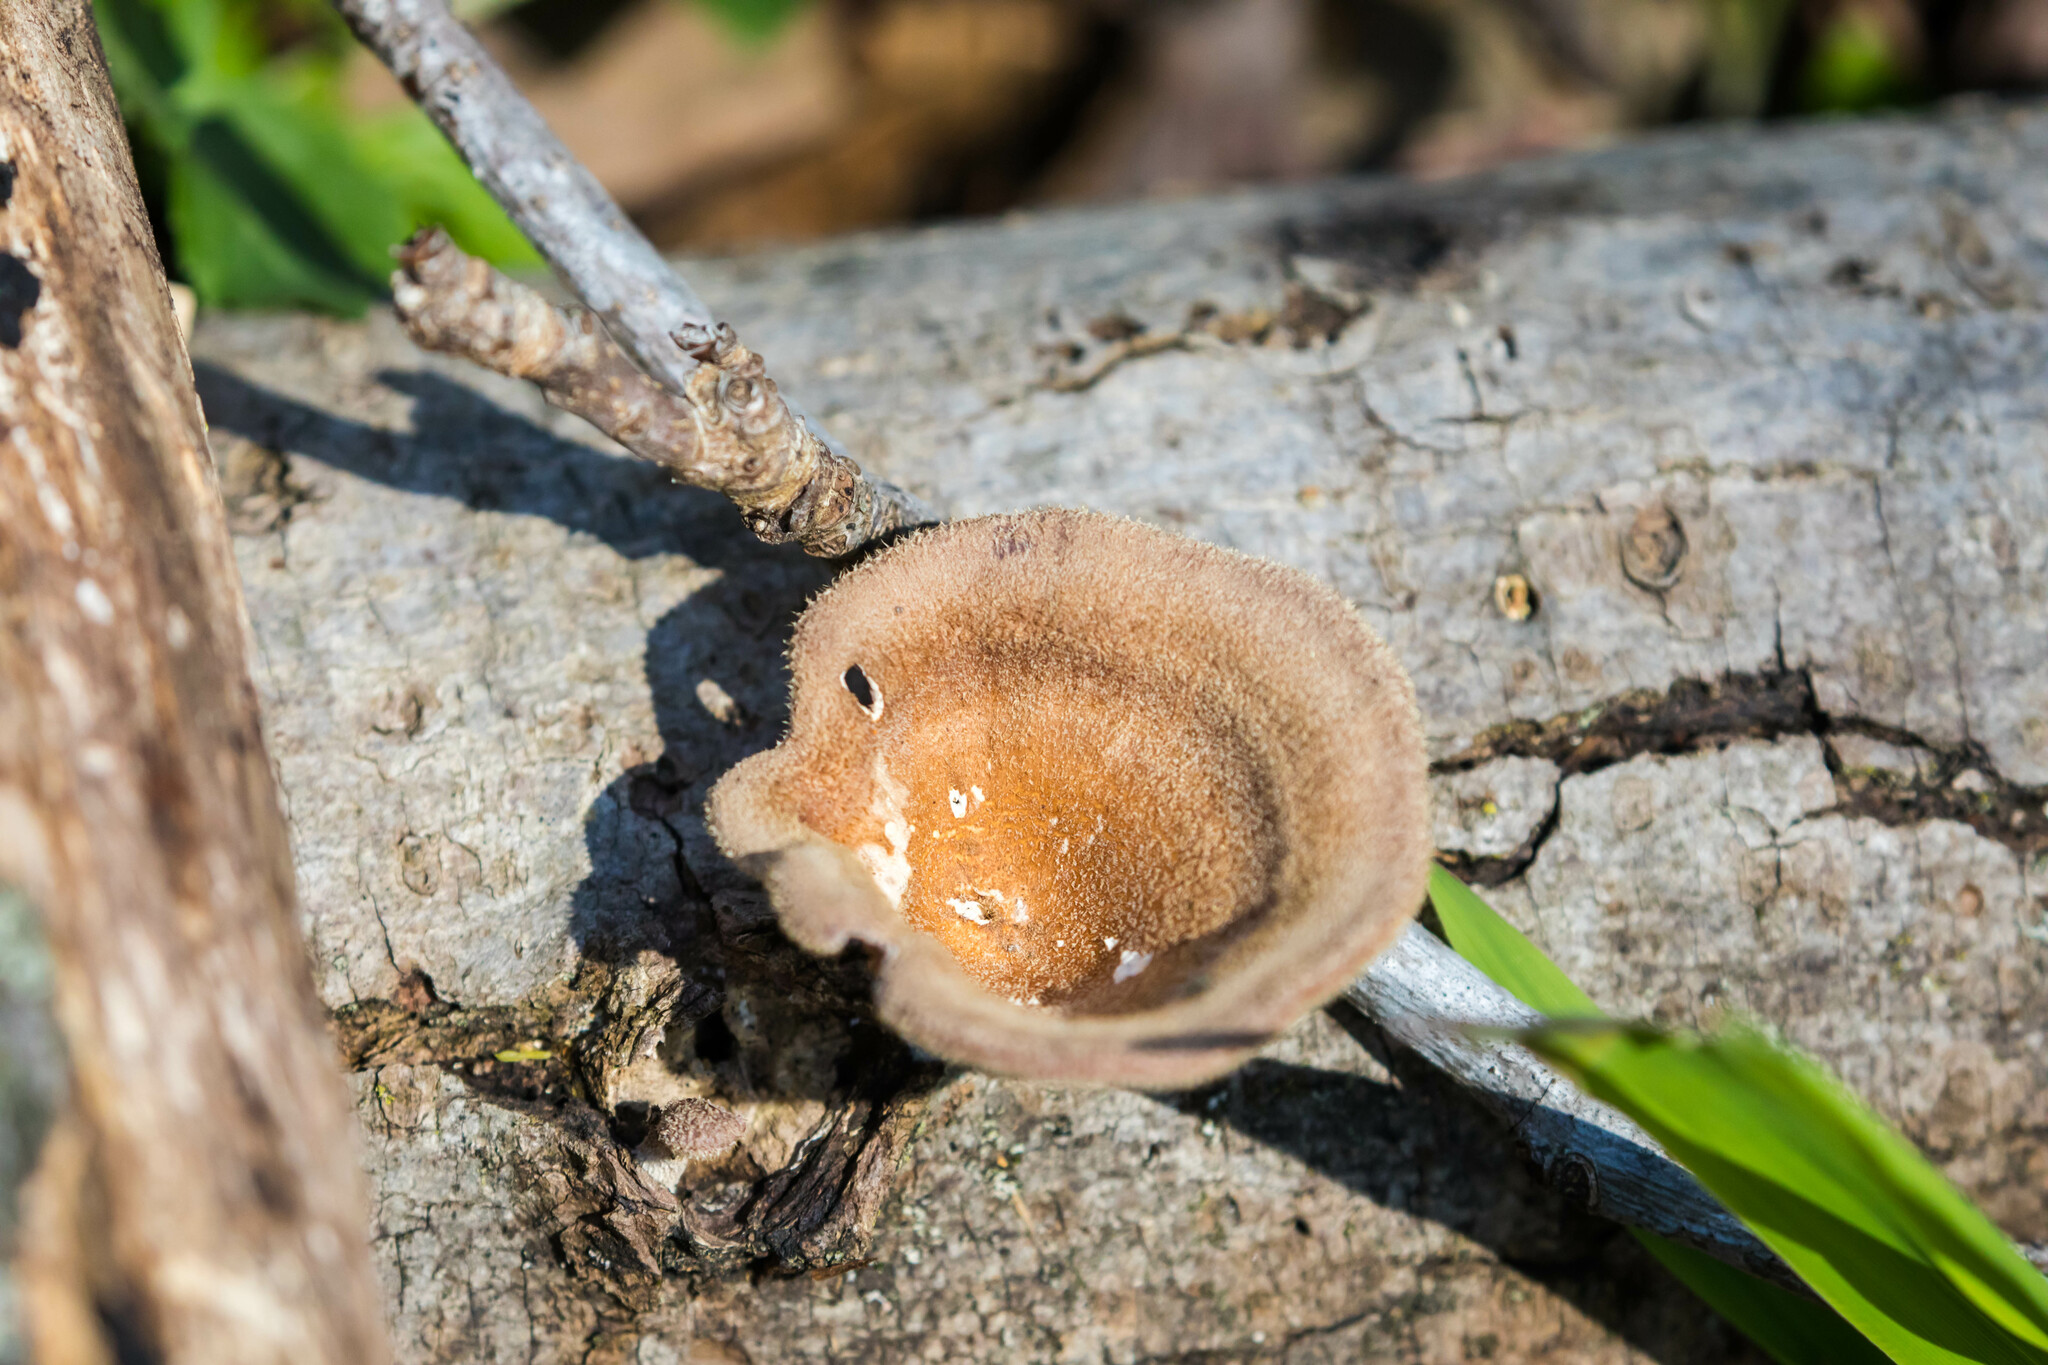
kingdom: Fungi
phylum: Basidiomycota
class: Agaricomycetes
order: Polyporales
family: Panaceae
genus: Panus
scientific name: Panus neostrigosus
